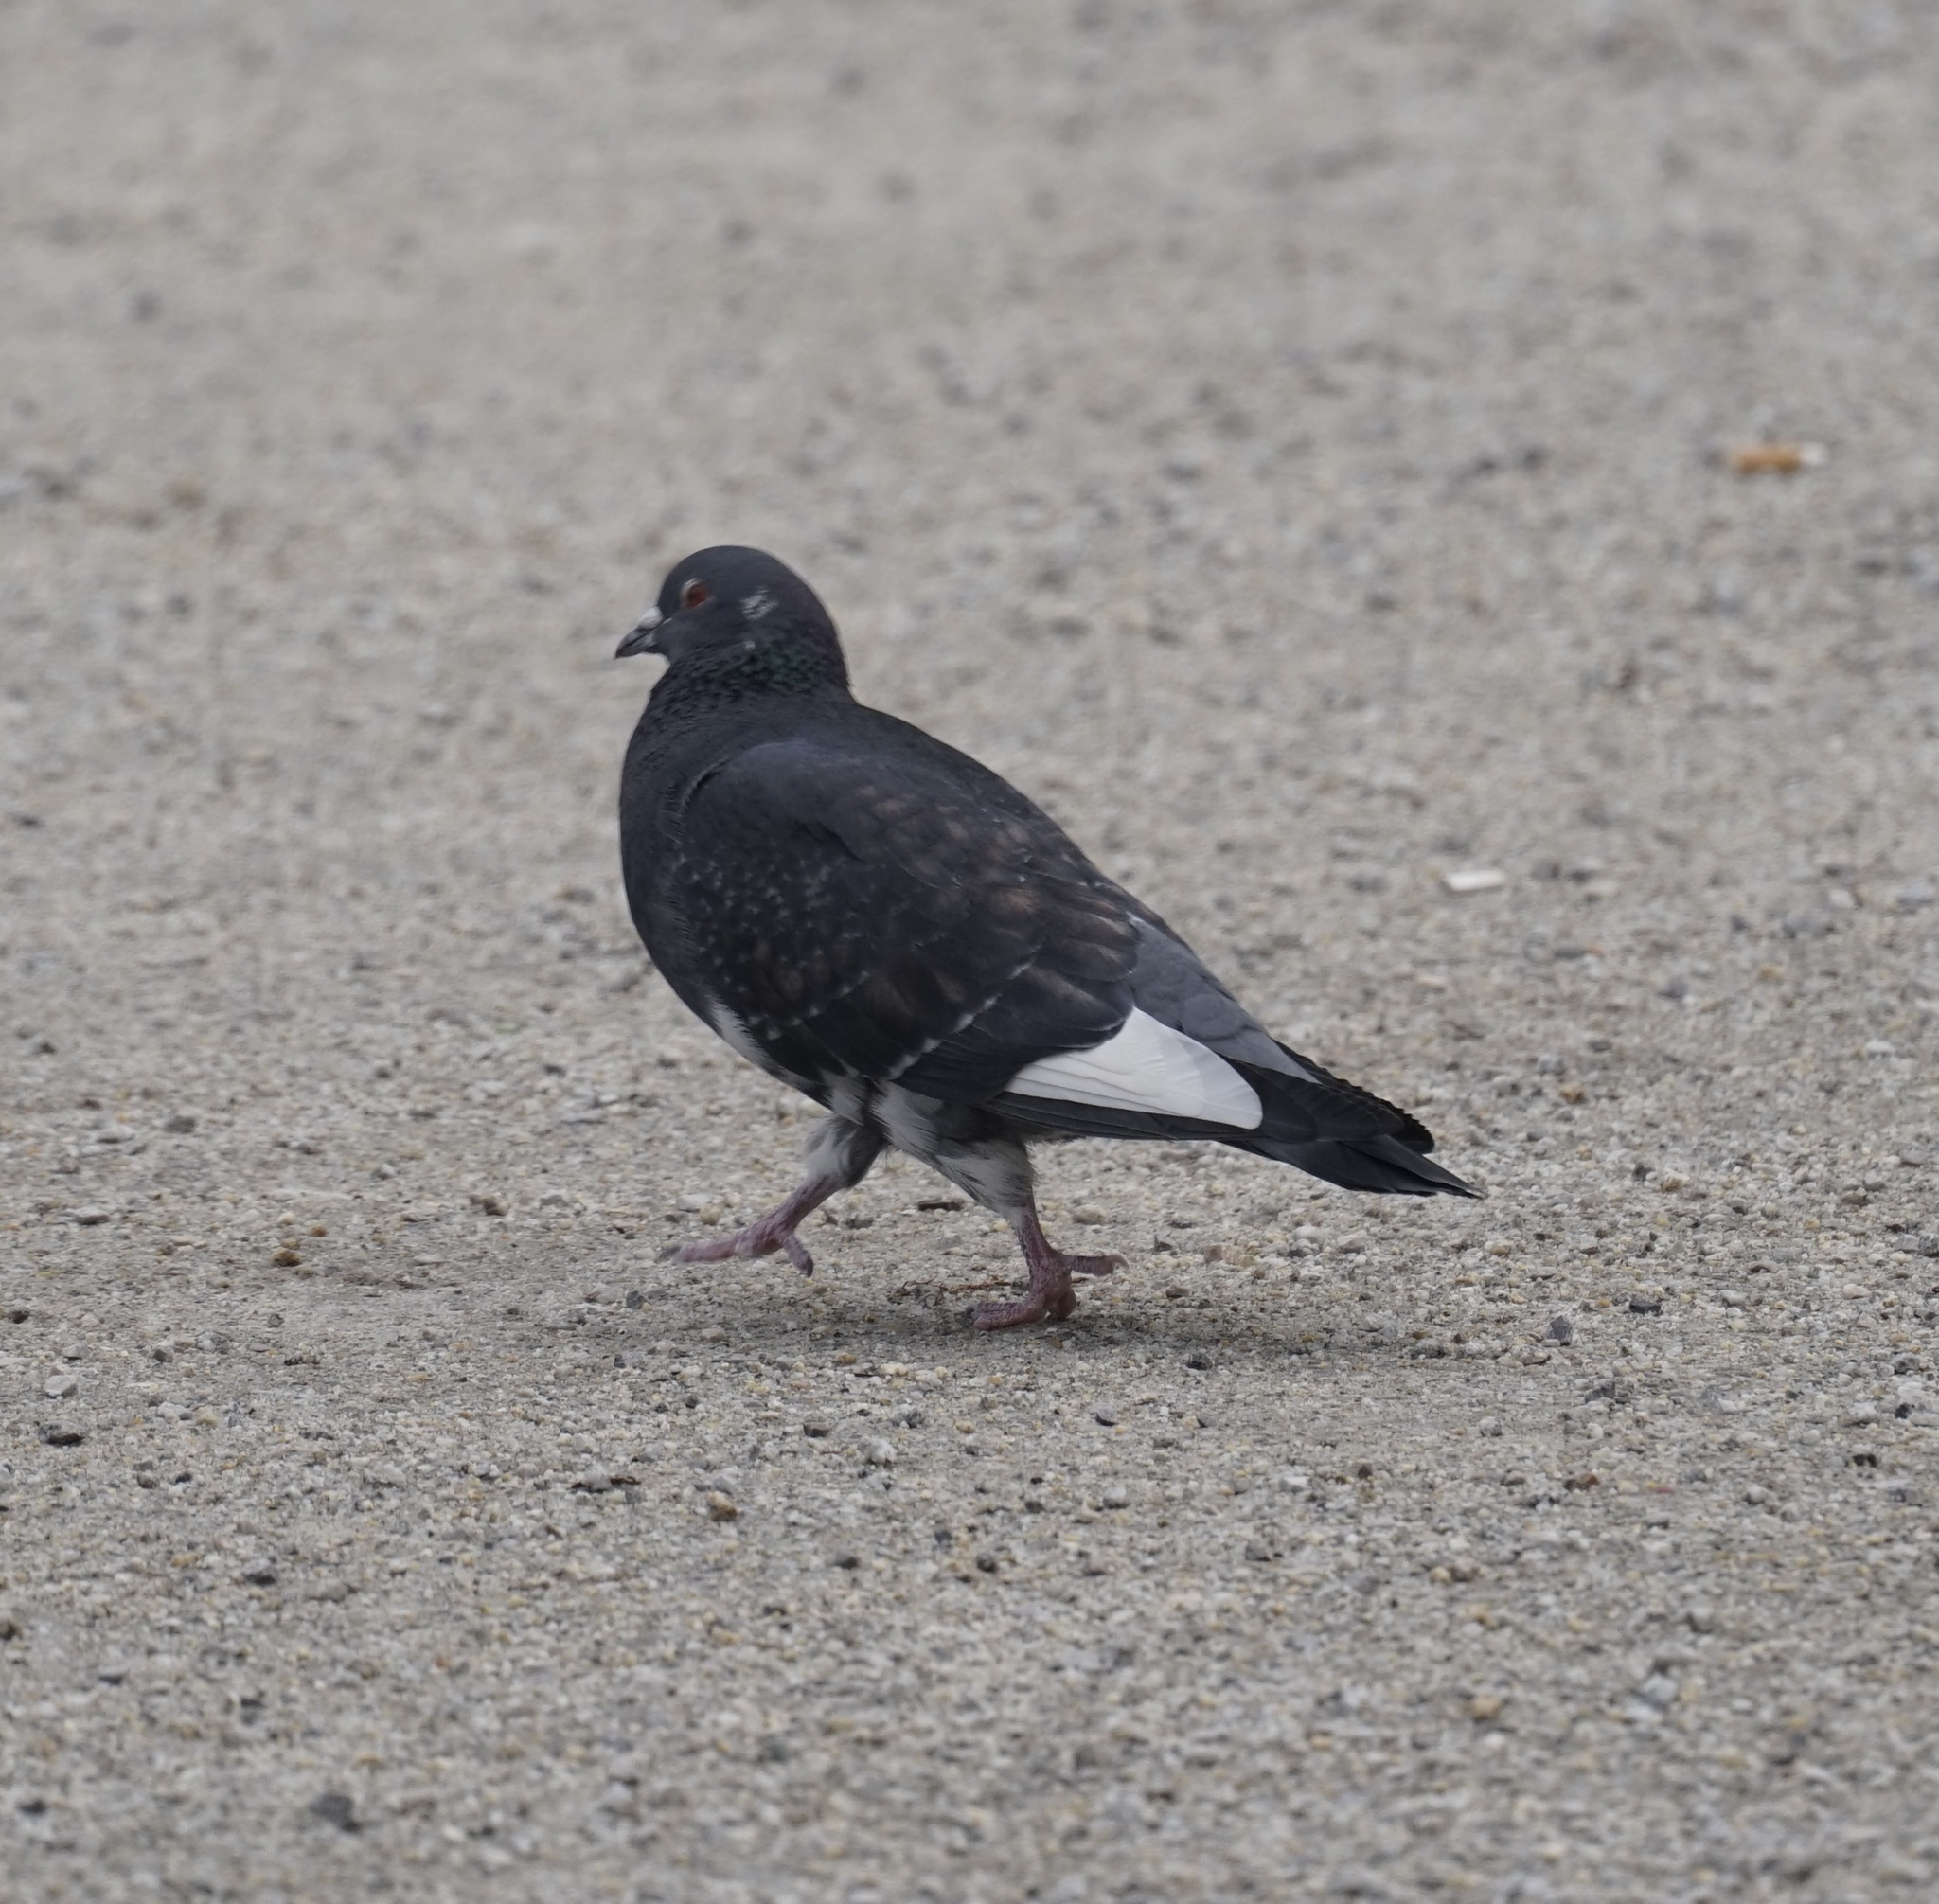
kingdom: Animalia
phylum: Chordata
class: Aves
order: Columbiformes
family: Columbidae
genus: Columba
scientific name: Columba livia
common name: Rock pigeon
